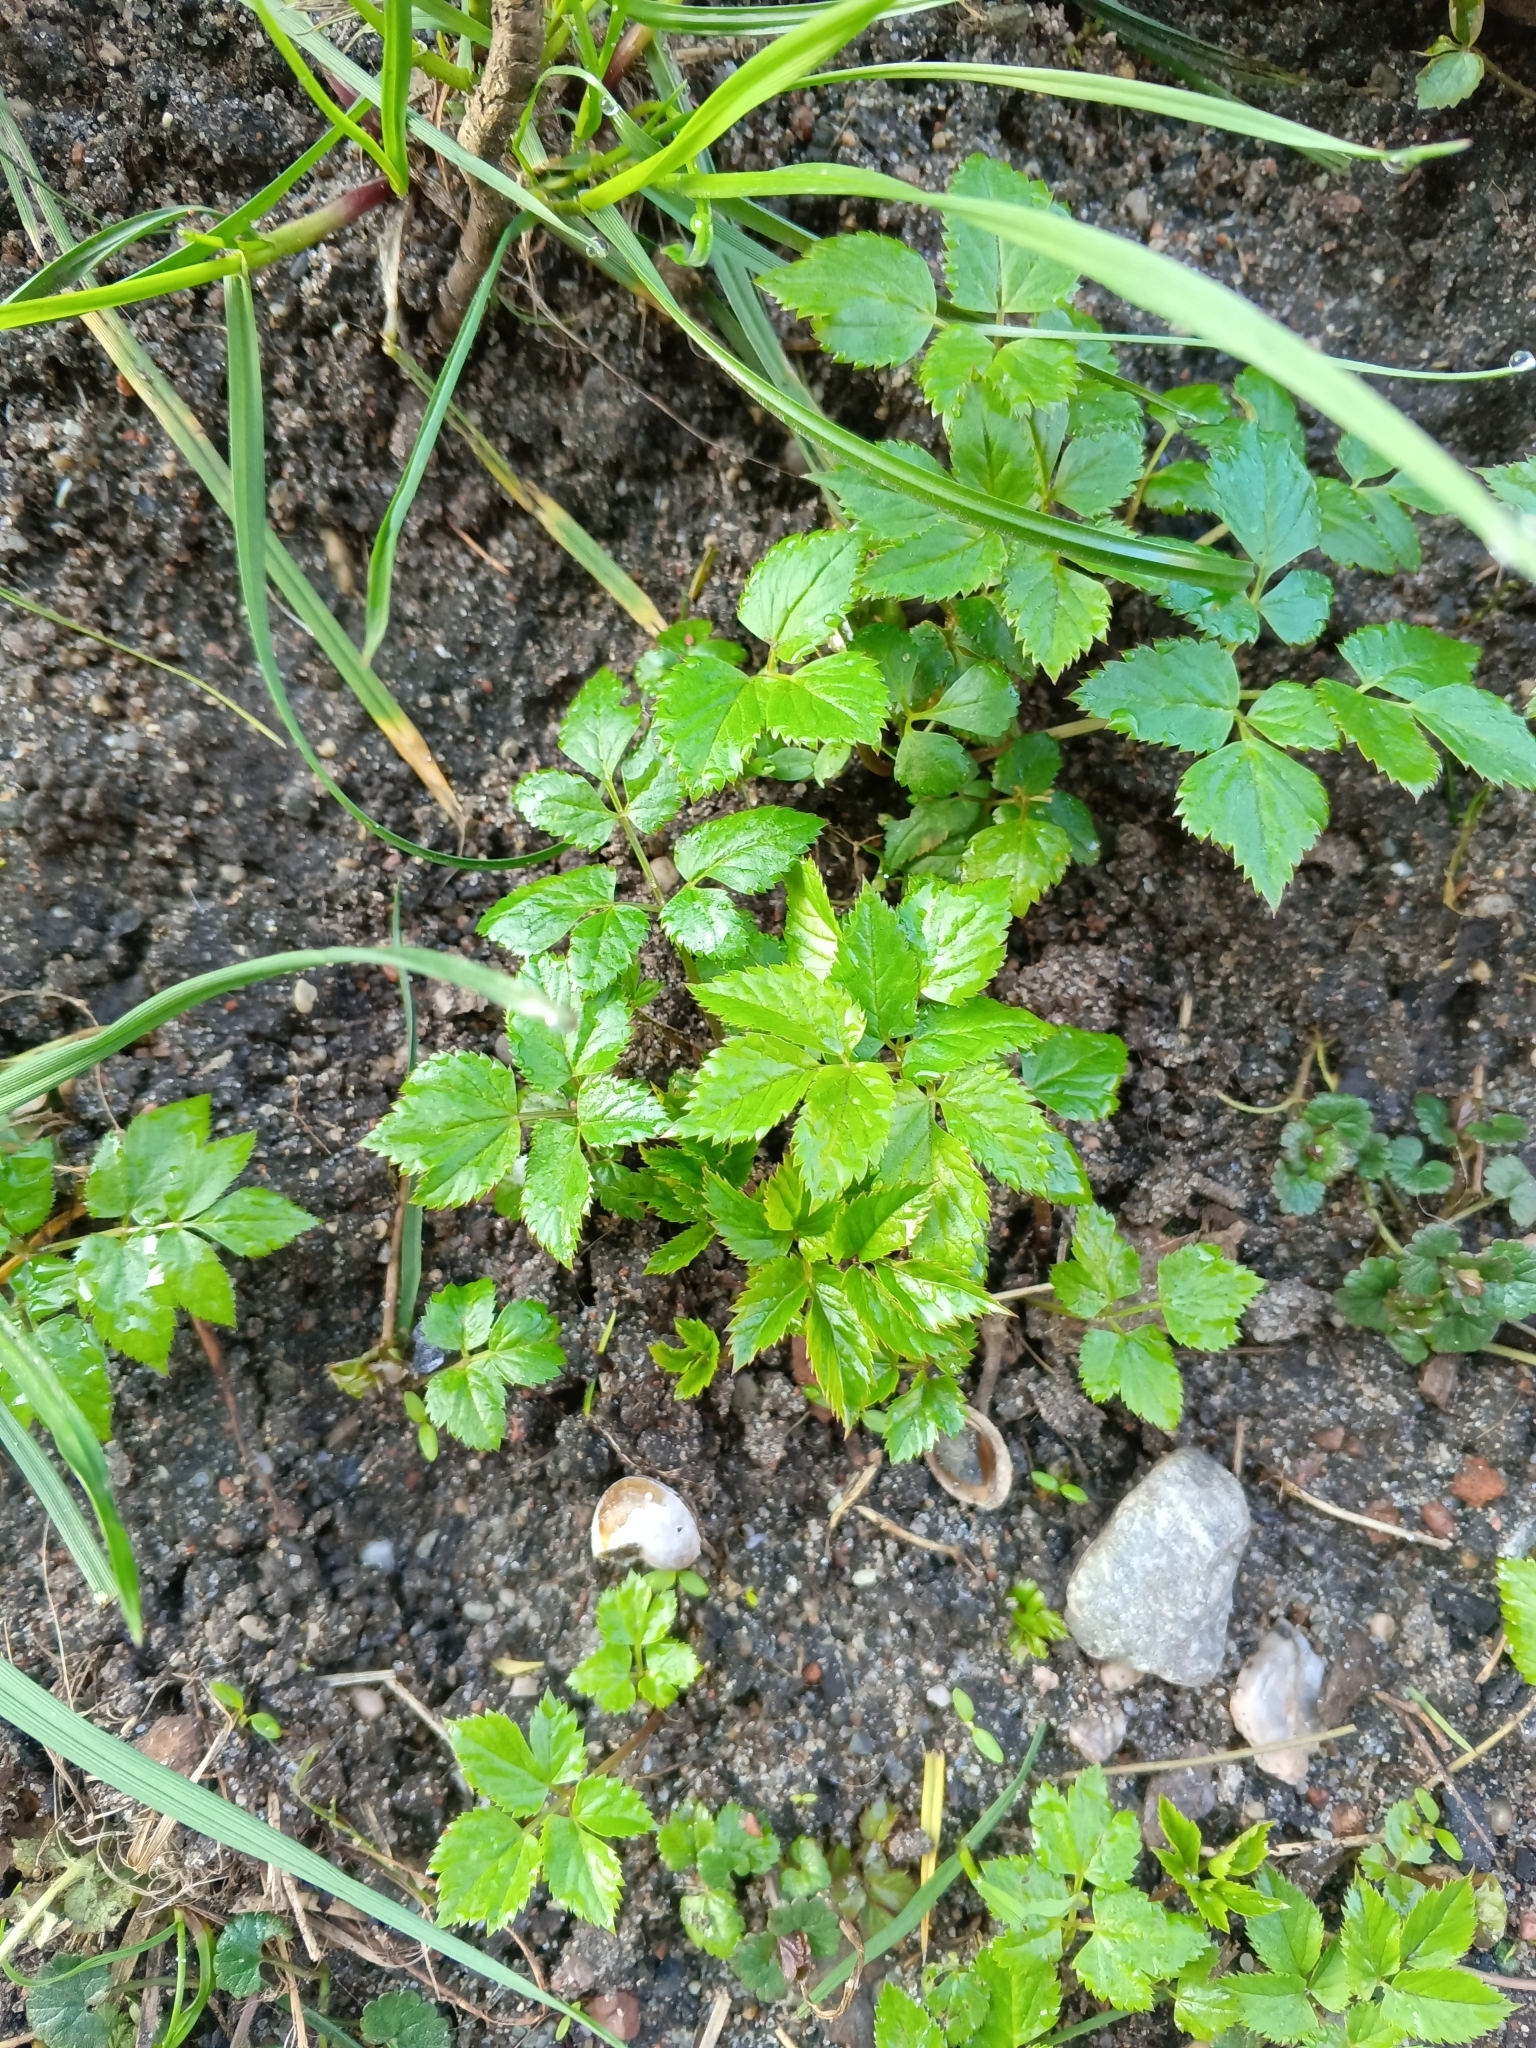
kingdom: Plantae
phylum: Tracheophyta
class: Magnoliopsida
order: Apiales
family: Apiaceae
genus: Aegopodium
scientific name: Aegopodium podagraria
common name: Ground-elder
